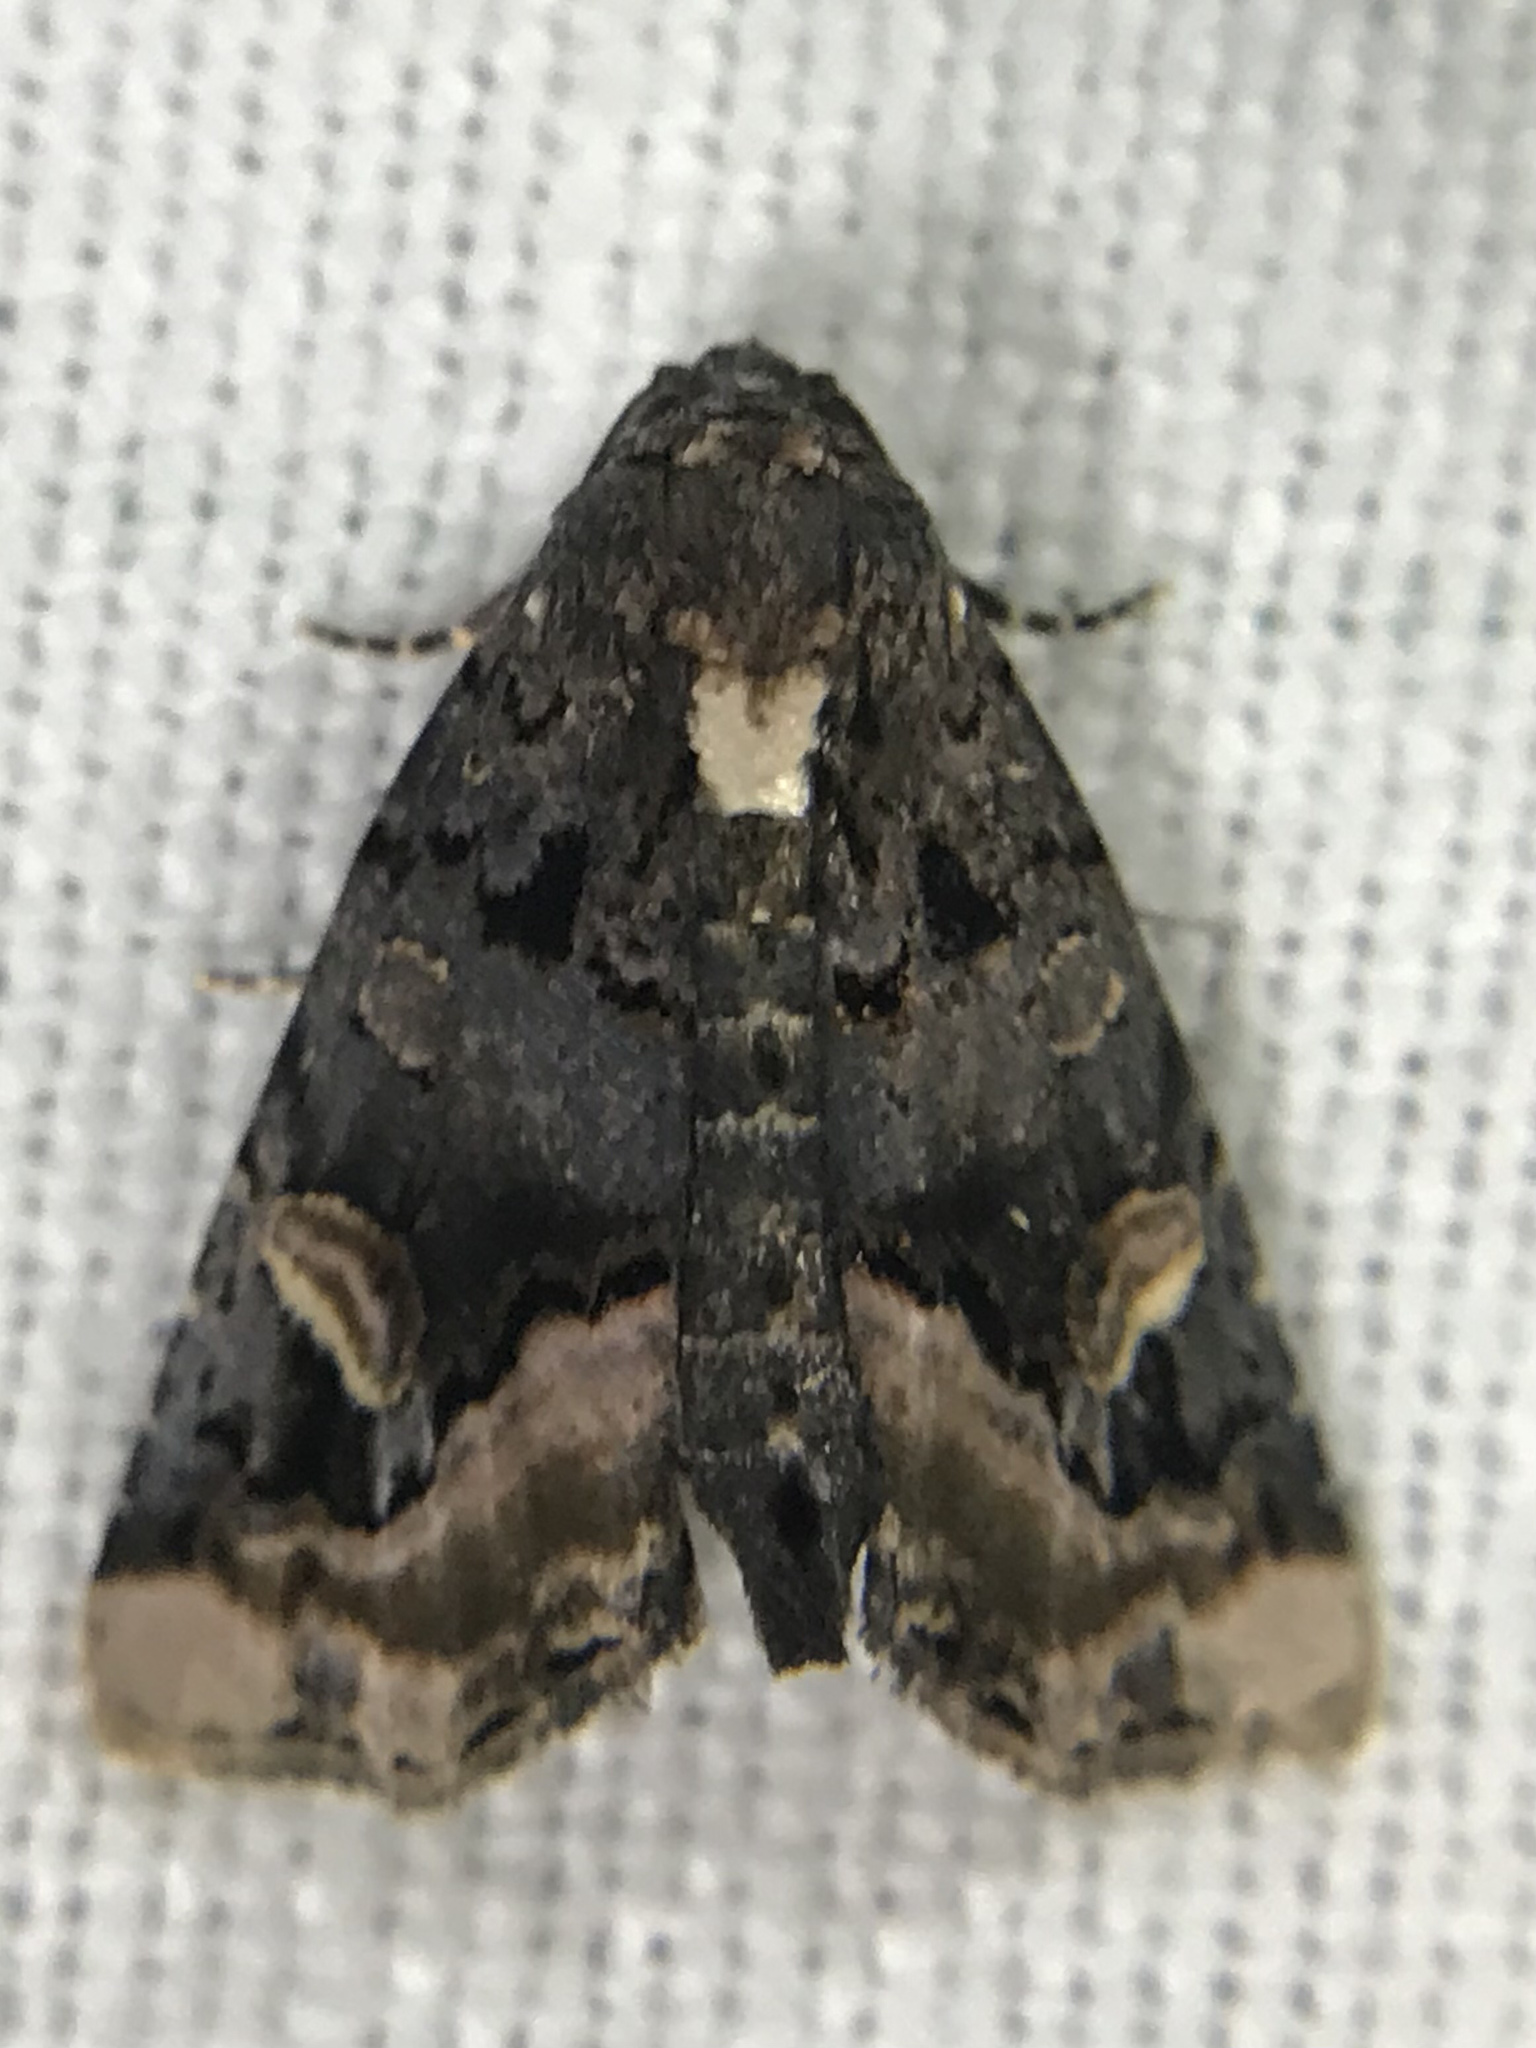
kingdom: Animalia
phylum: Arthropoda
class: Insecta
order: Lepidoptera
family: Noctuidae
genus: Homophoberia
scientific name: Homophoberia apicosa
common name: Black wedge-spot
